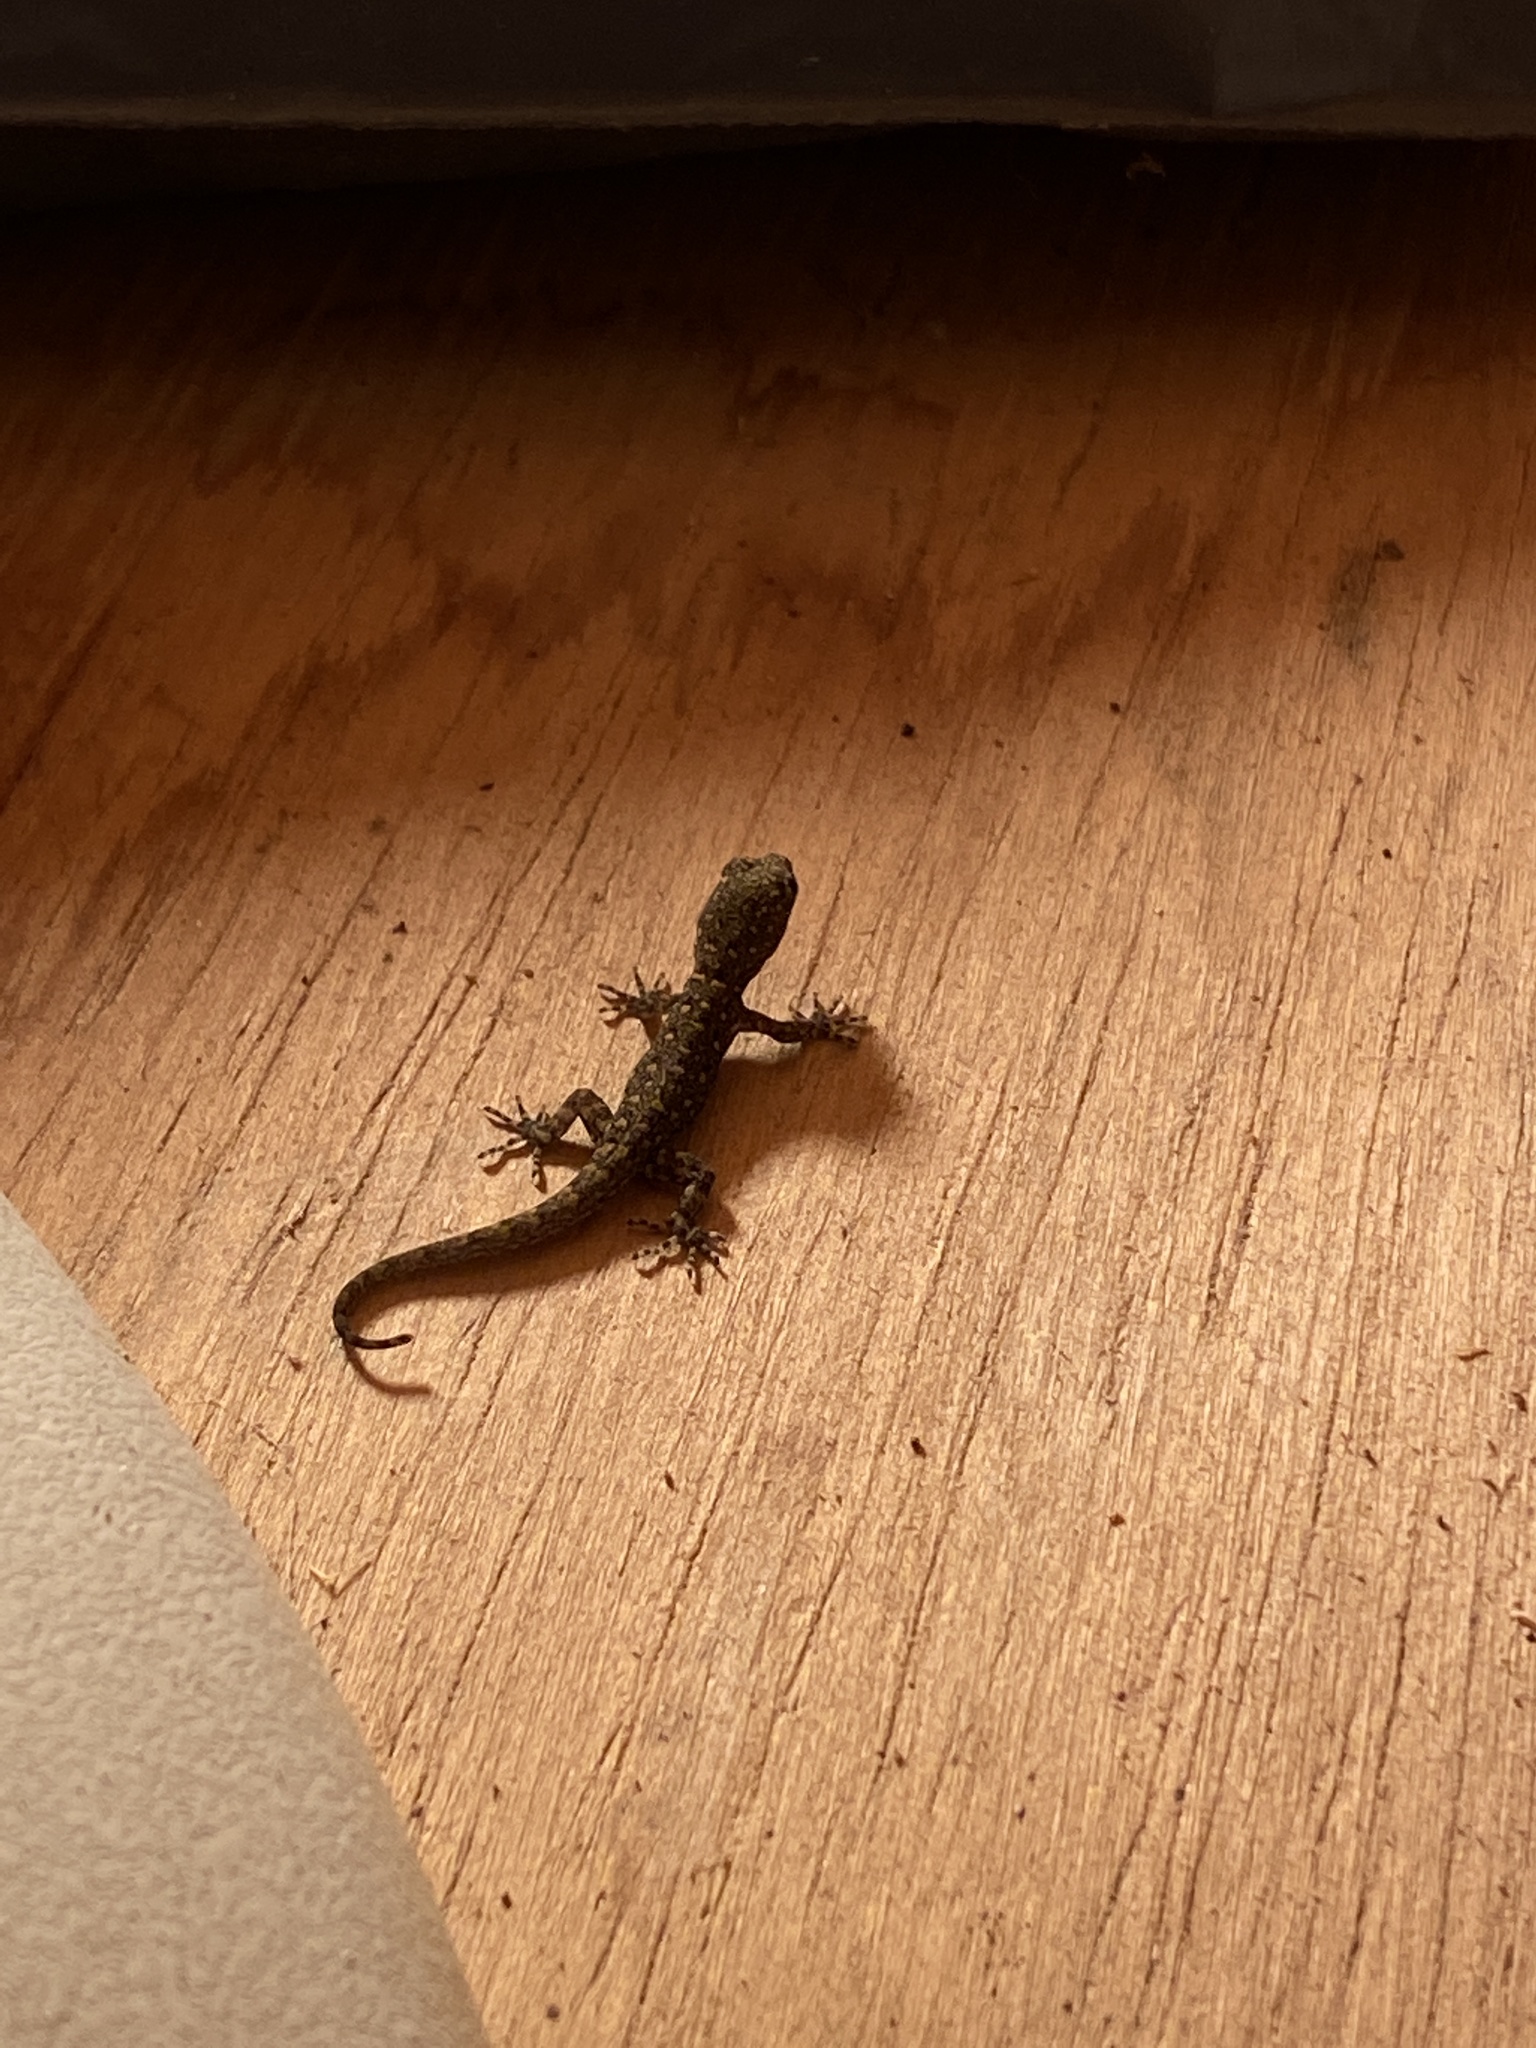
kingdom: Animalia
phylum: Chordata
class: Squamata
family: Sphaerodactylidae
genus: Gonatodes
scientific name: Gonatodes vittatus
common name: Wiegmann's striped gecko
